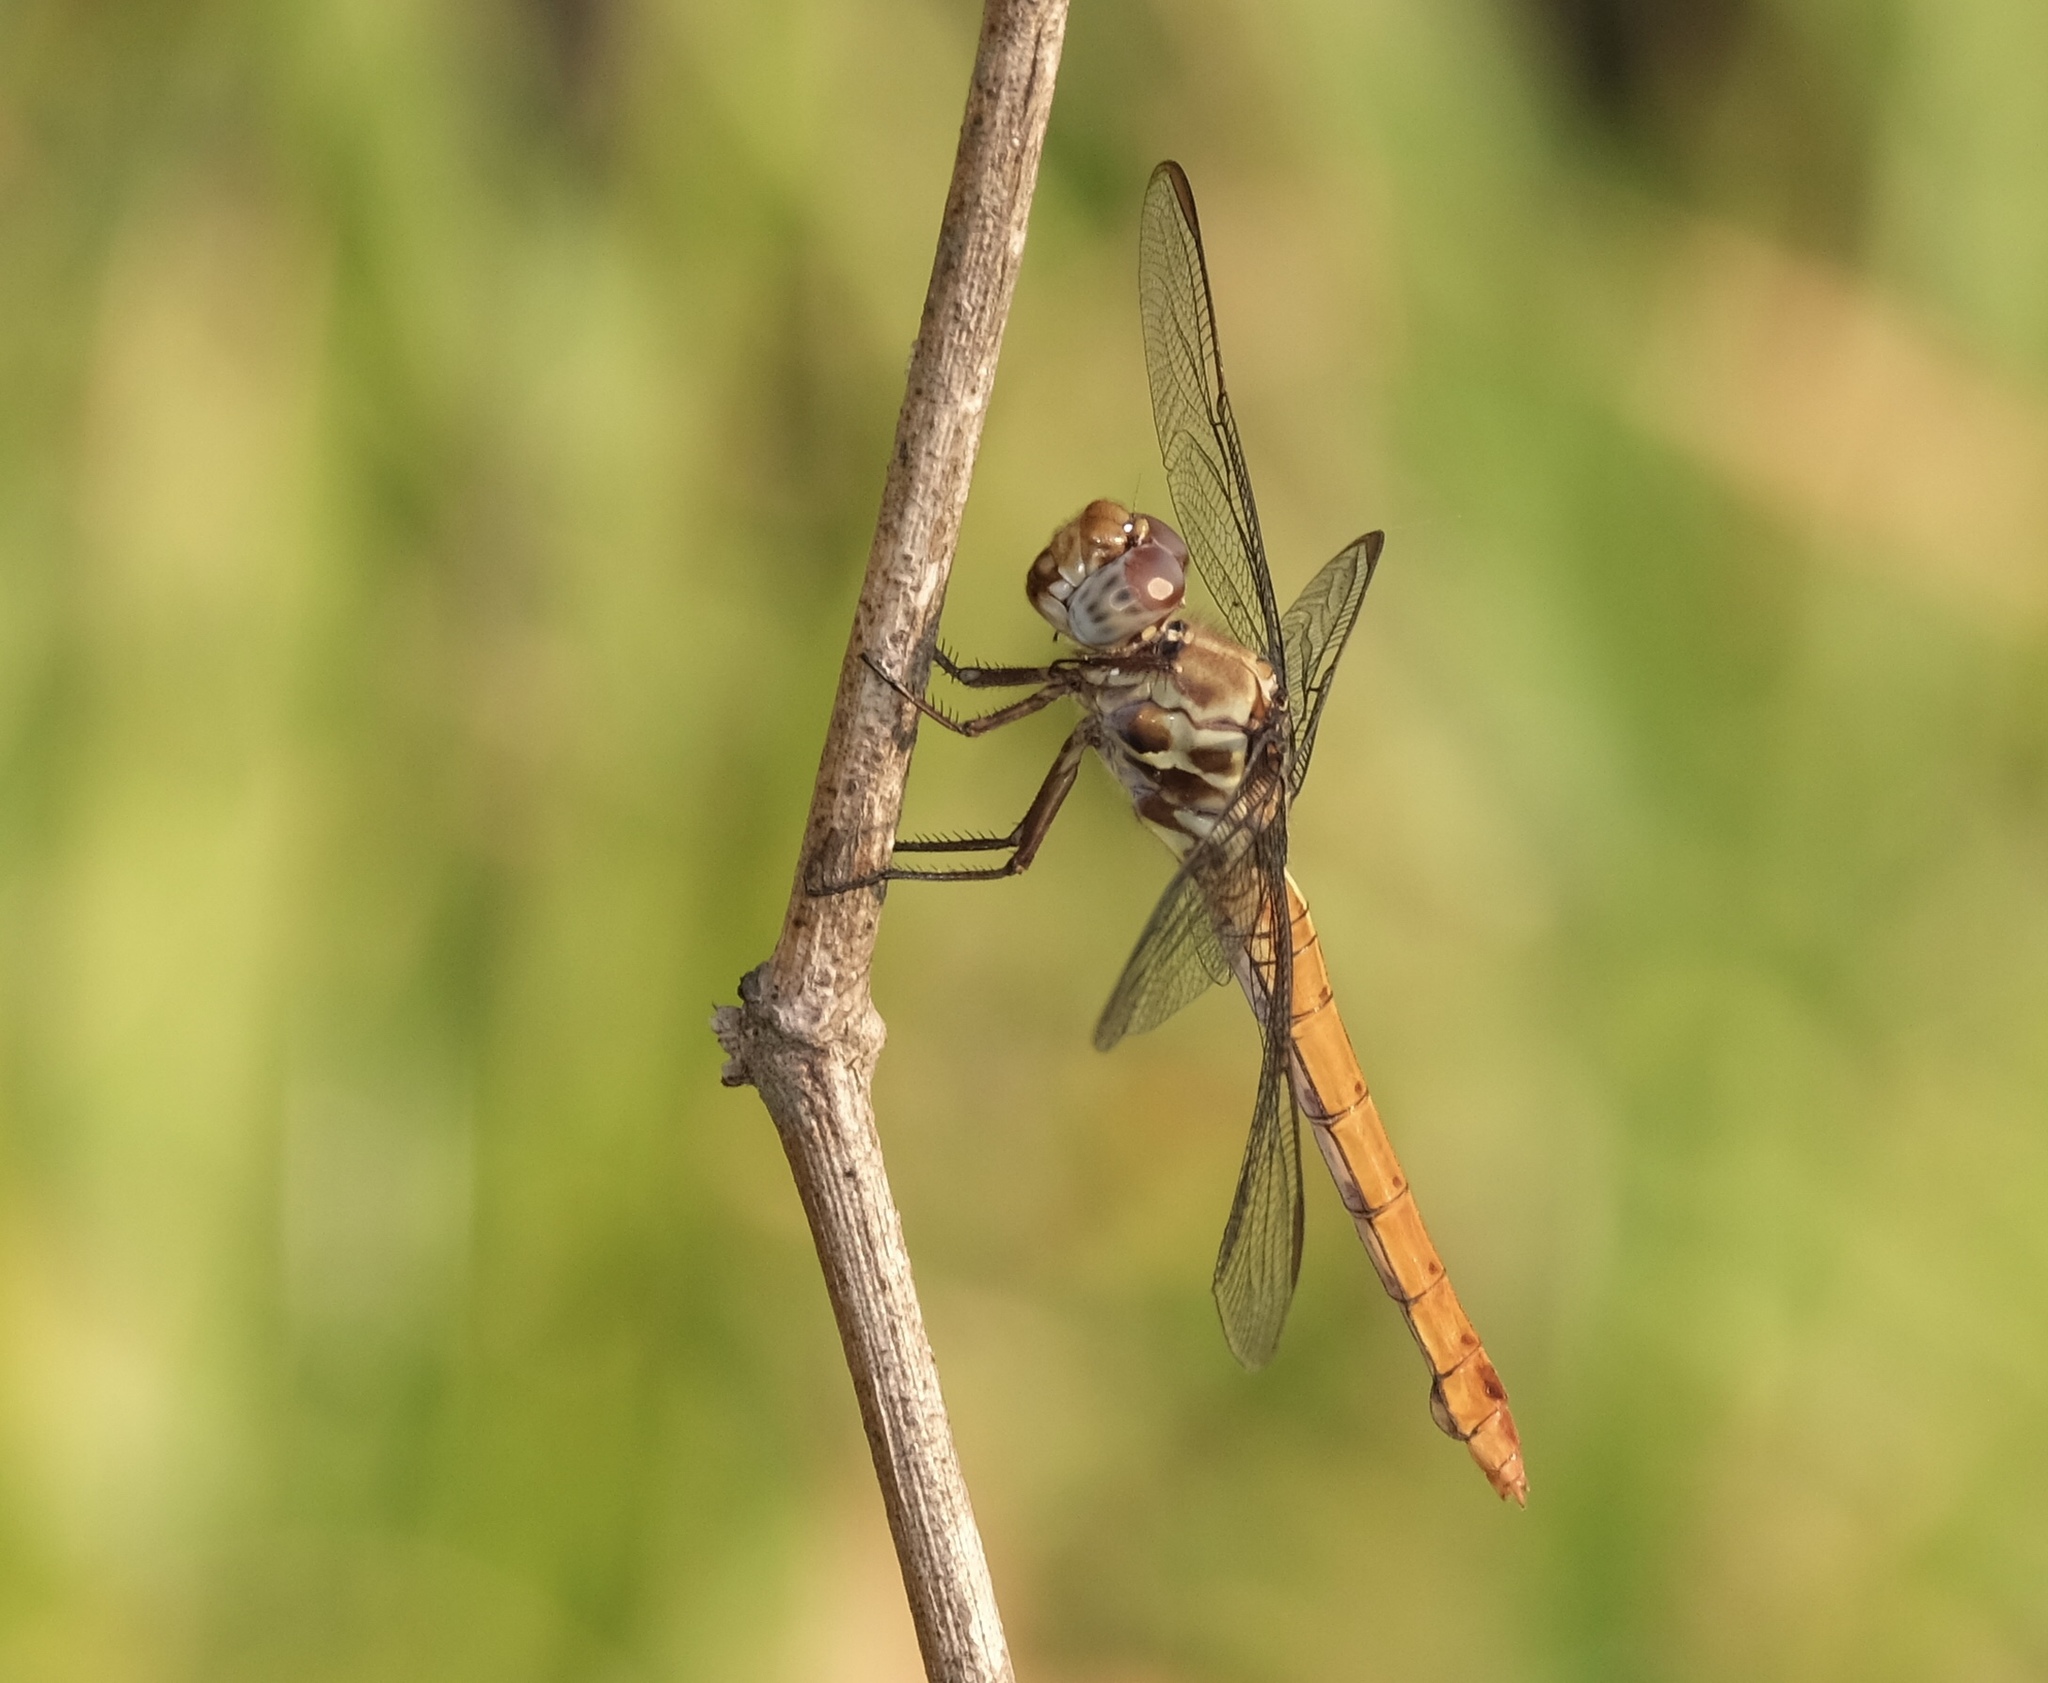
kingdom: Animalia
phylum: Arthropoda
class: Insecta
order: Odonata
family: Libellulidae
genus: Orthemis
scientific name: Orthemis ferruginea
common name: Roseate skimmer
